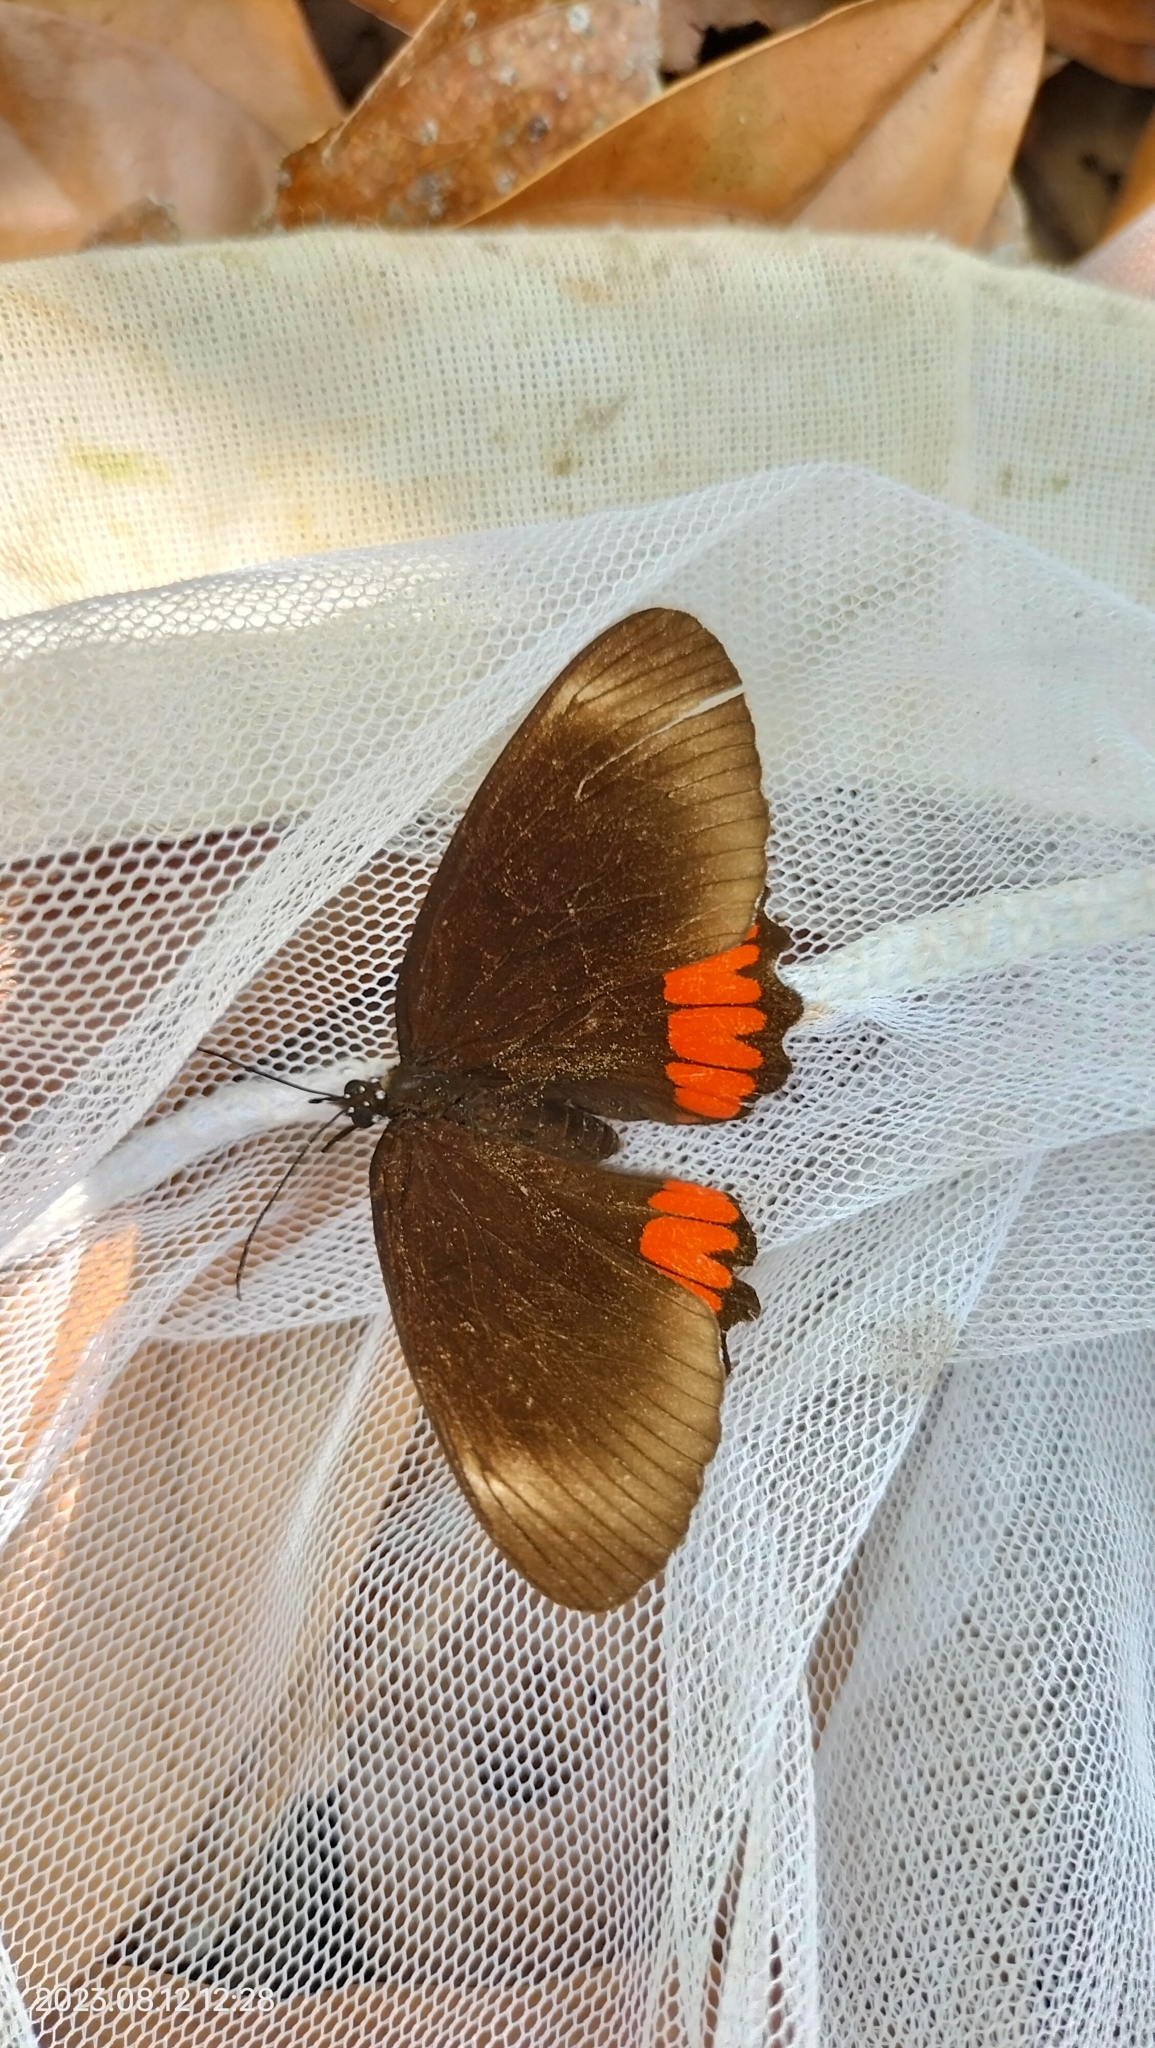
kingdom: Animalia
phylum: Arthropoda
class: Insecta
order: Lepidoptera
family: Sesiidae
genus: Sesia
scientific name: Sesia Biblis hyperia
